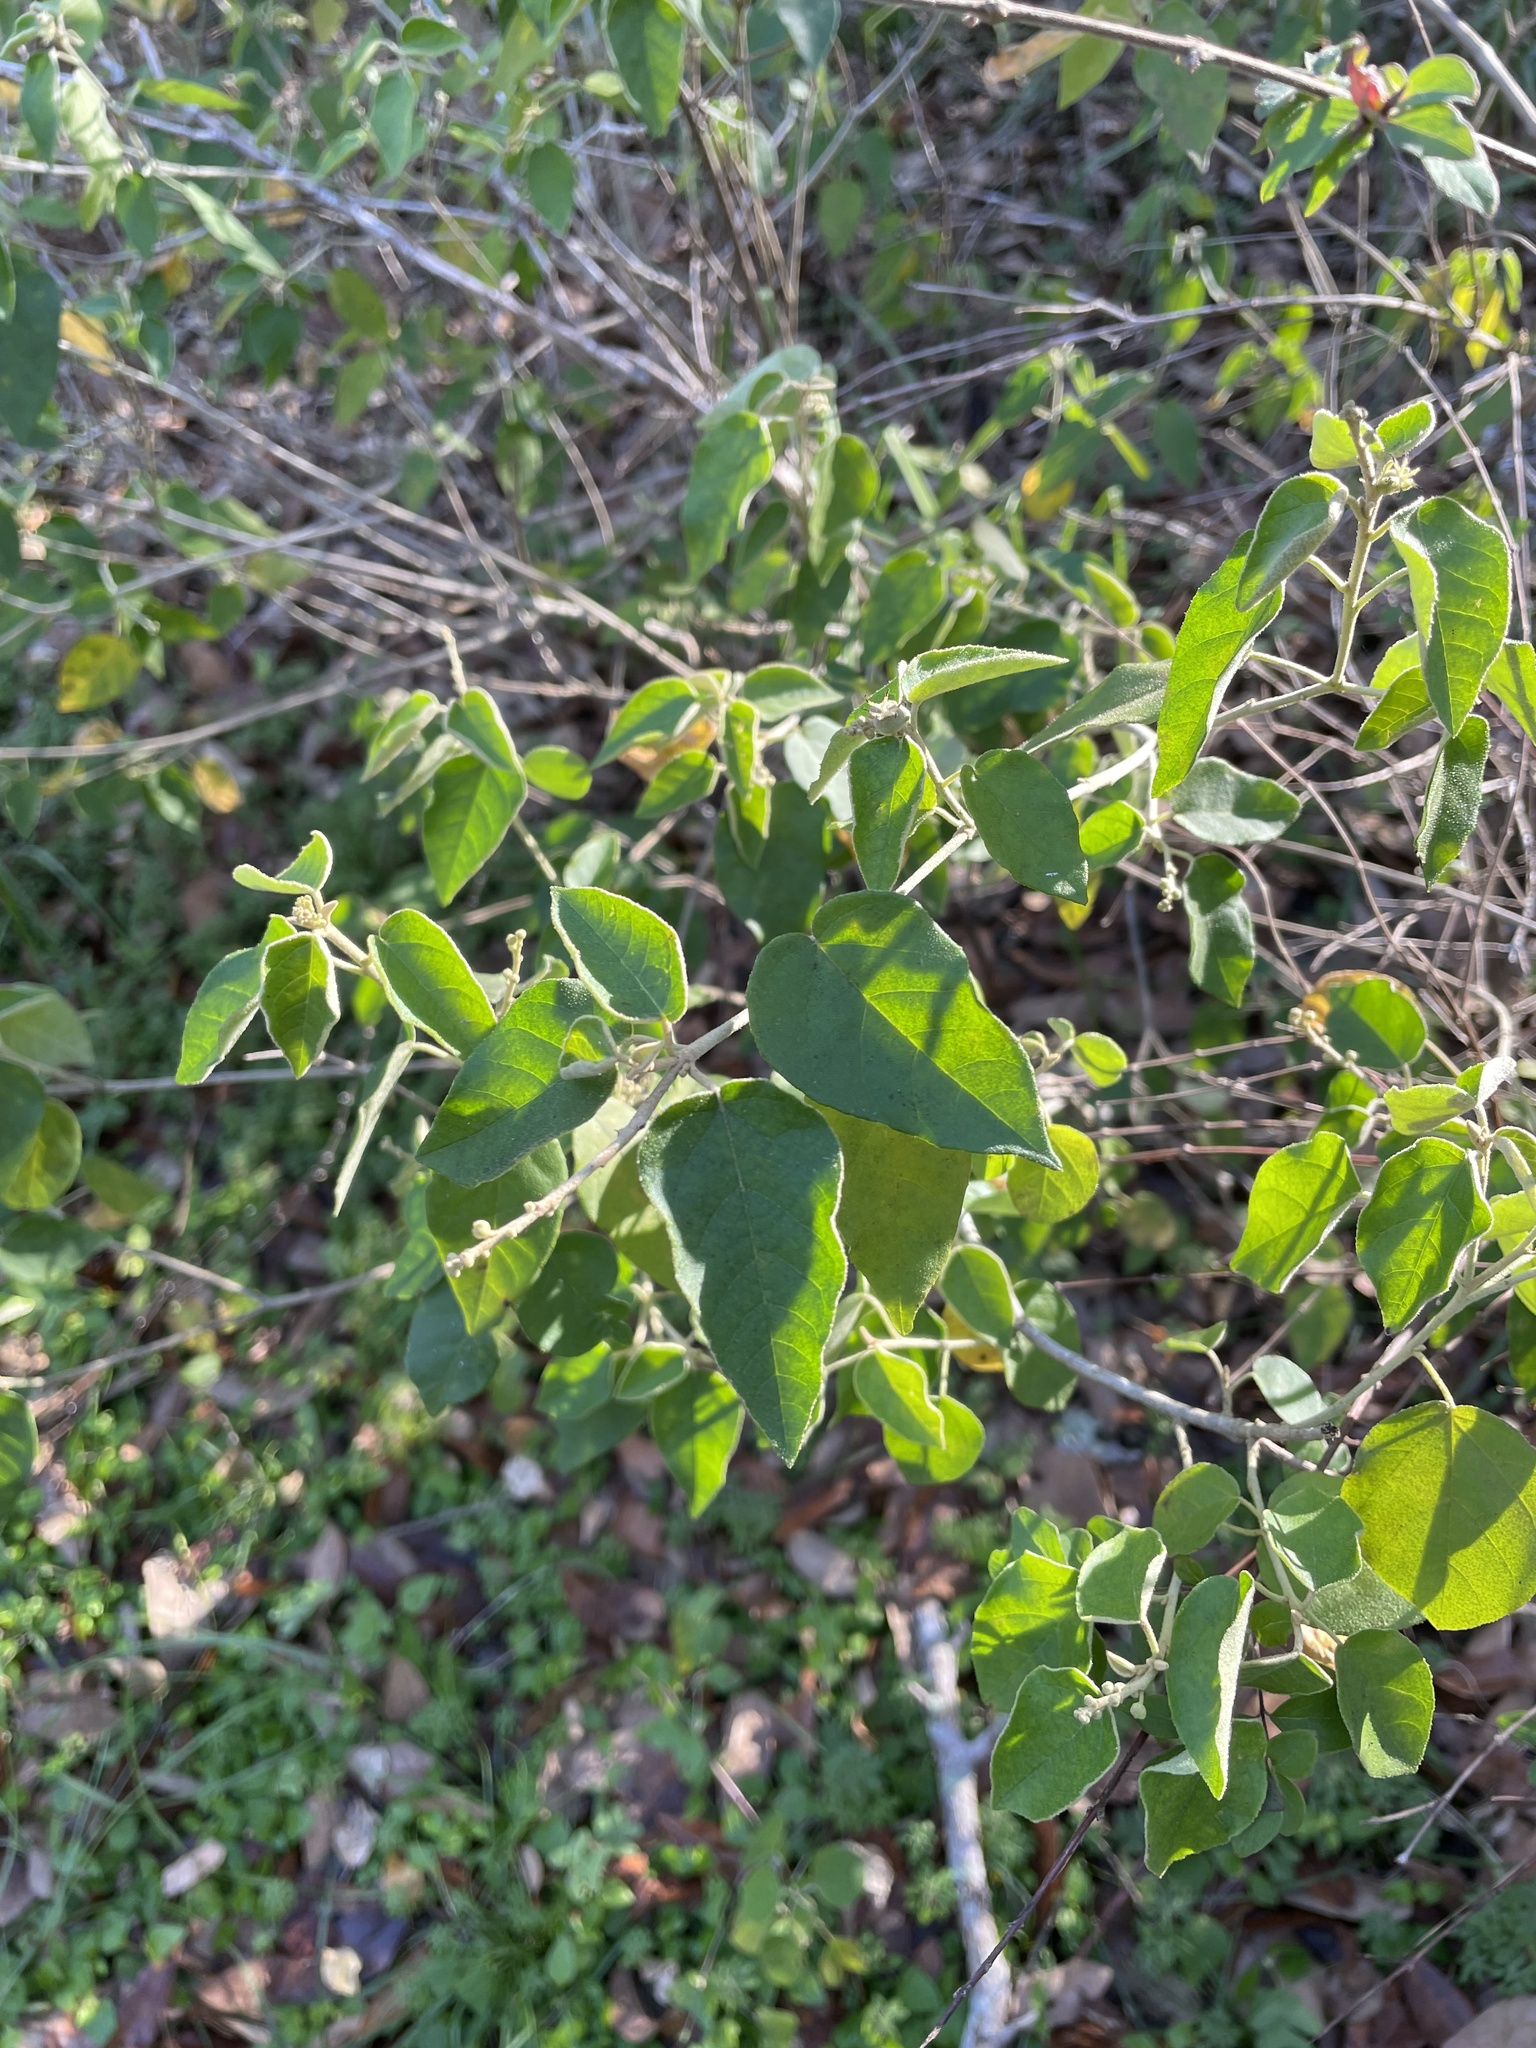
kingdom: Plantae
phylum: Tracheophyta
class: Magnoliopsida
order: Malpighiales
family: Euphorbiaceae
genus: Croton
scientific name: Croton fruticulosus
